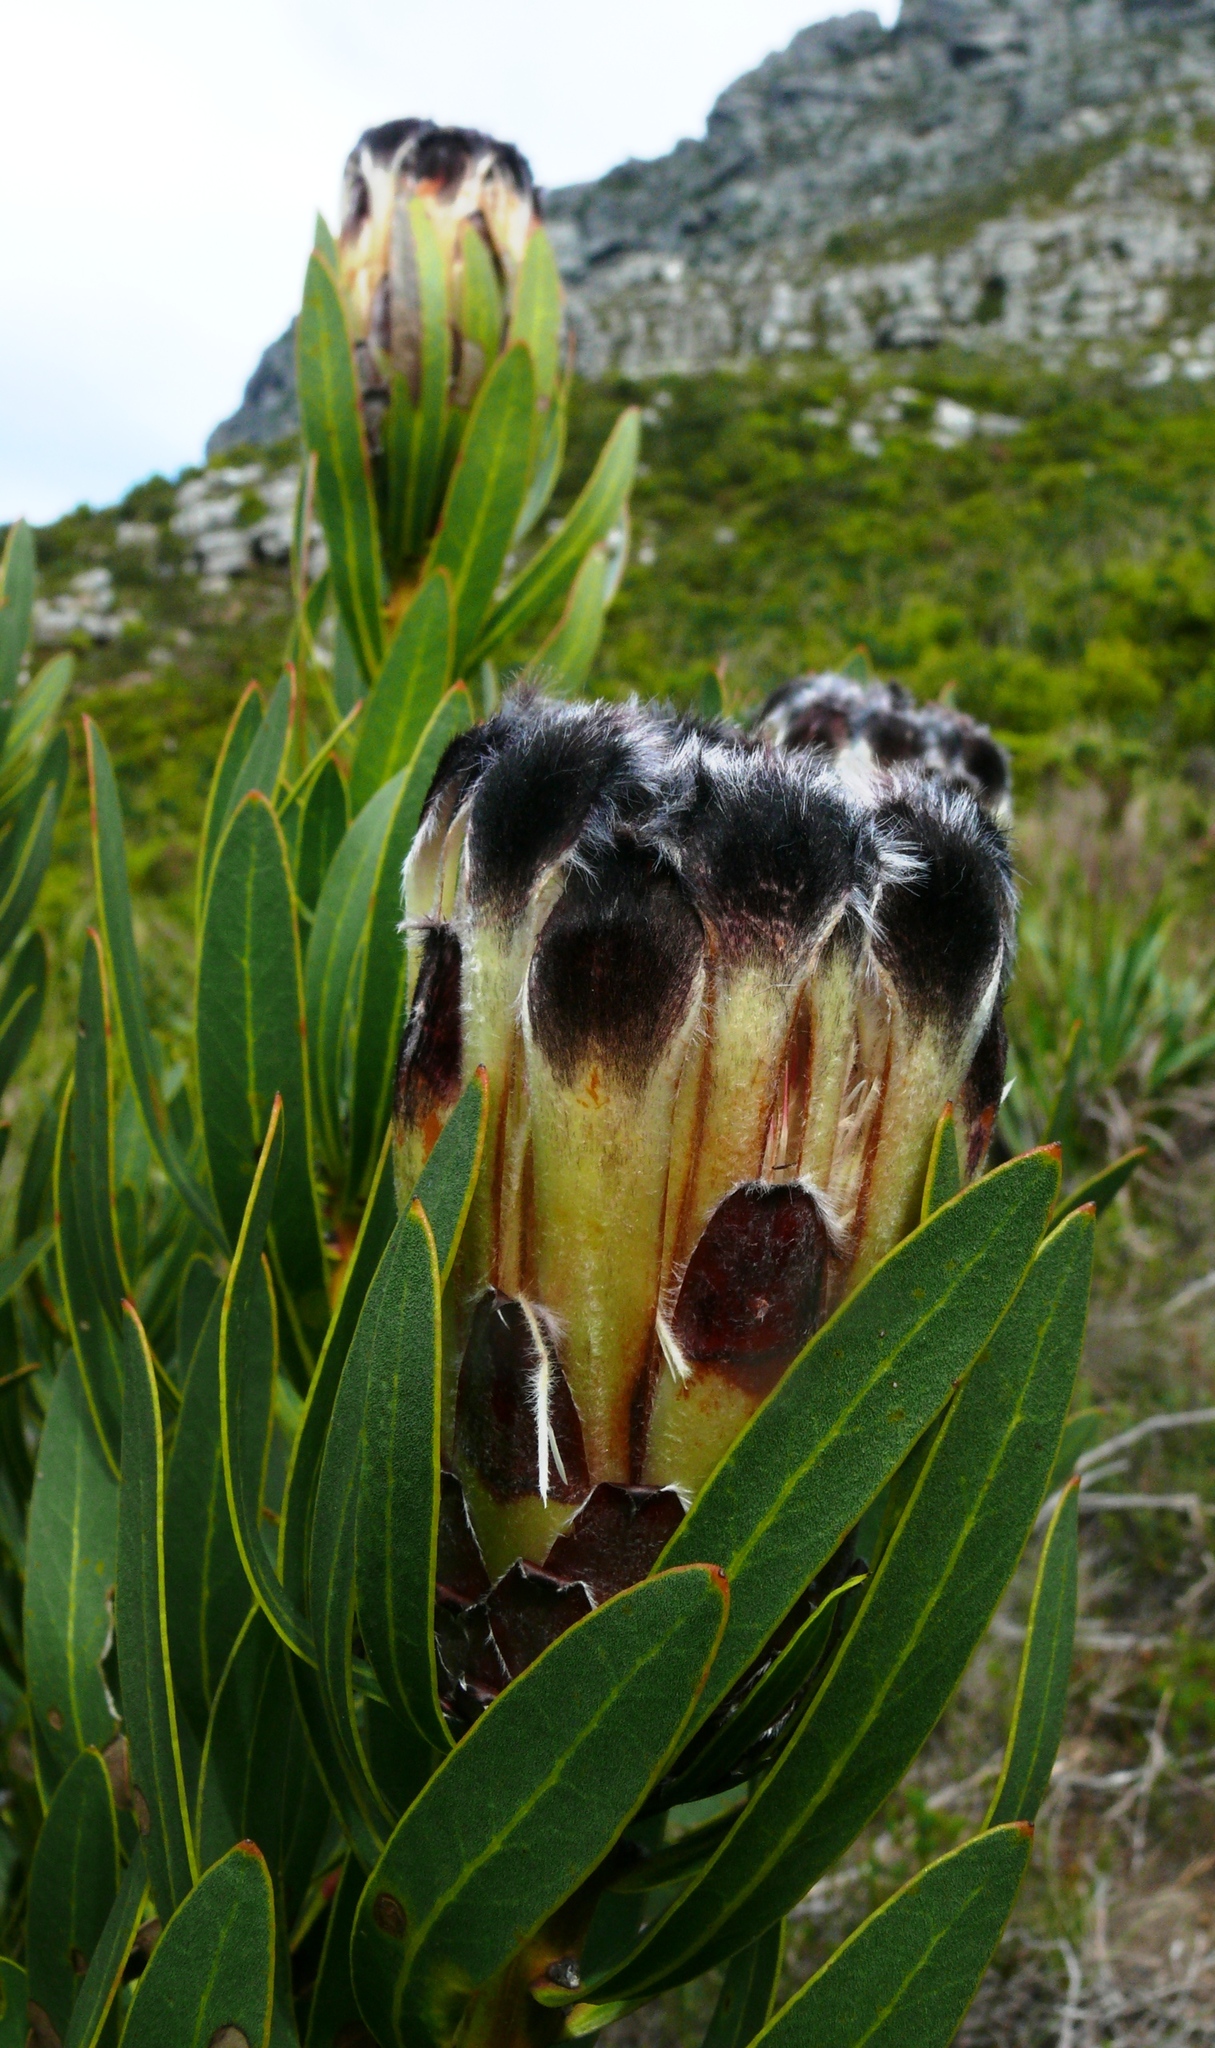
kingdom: Plantae
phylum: Tracheophyta
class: Magnoliopsida
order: Proteales
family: Proteaceae
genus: Protea
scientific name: Protea lepidocarpodendron
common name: Black-bearded protea
